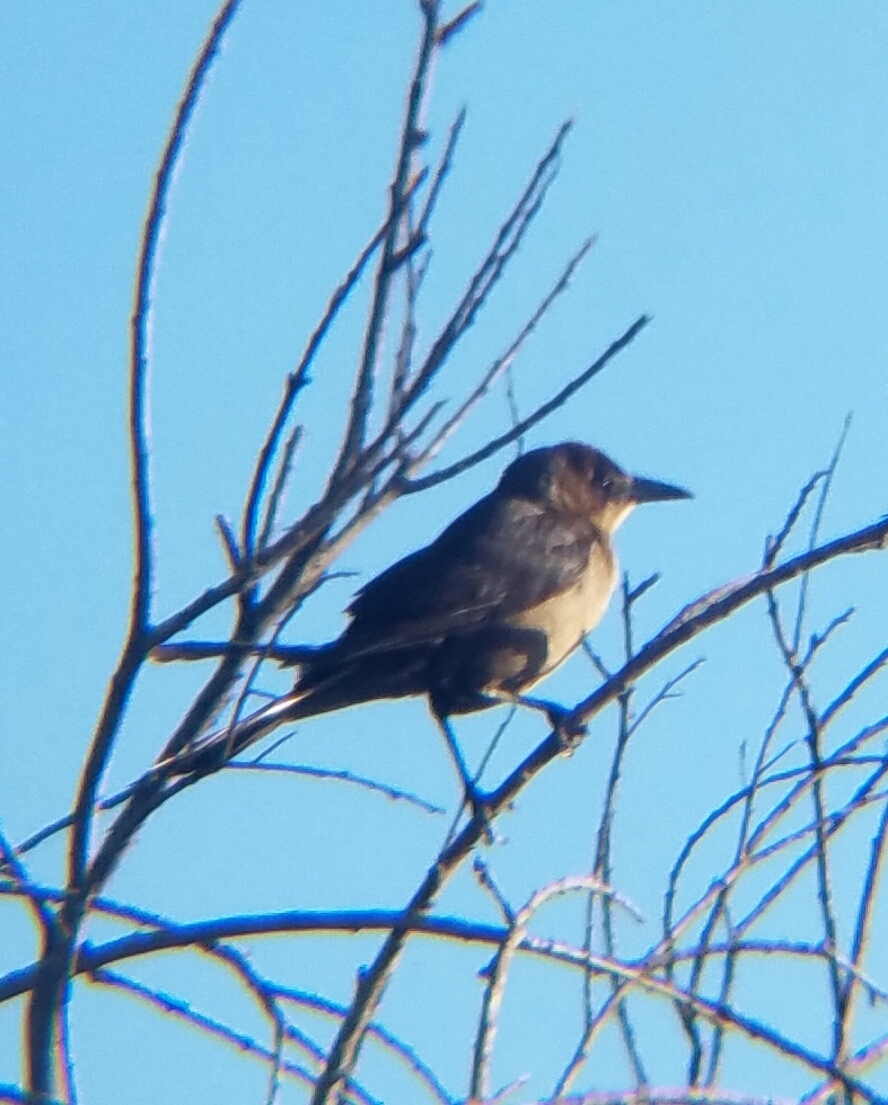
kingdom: Animalia
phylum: Chordata
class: Aves
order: Passeriformes
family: Icteridae
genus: Quiscalus
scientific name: Quiscalus mexicanus
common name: Great-tailed grackle
